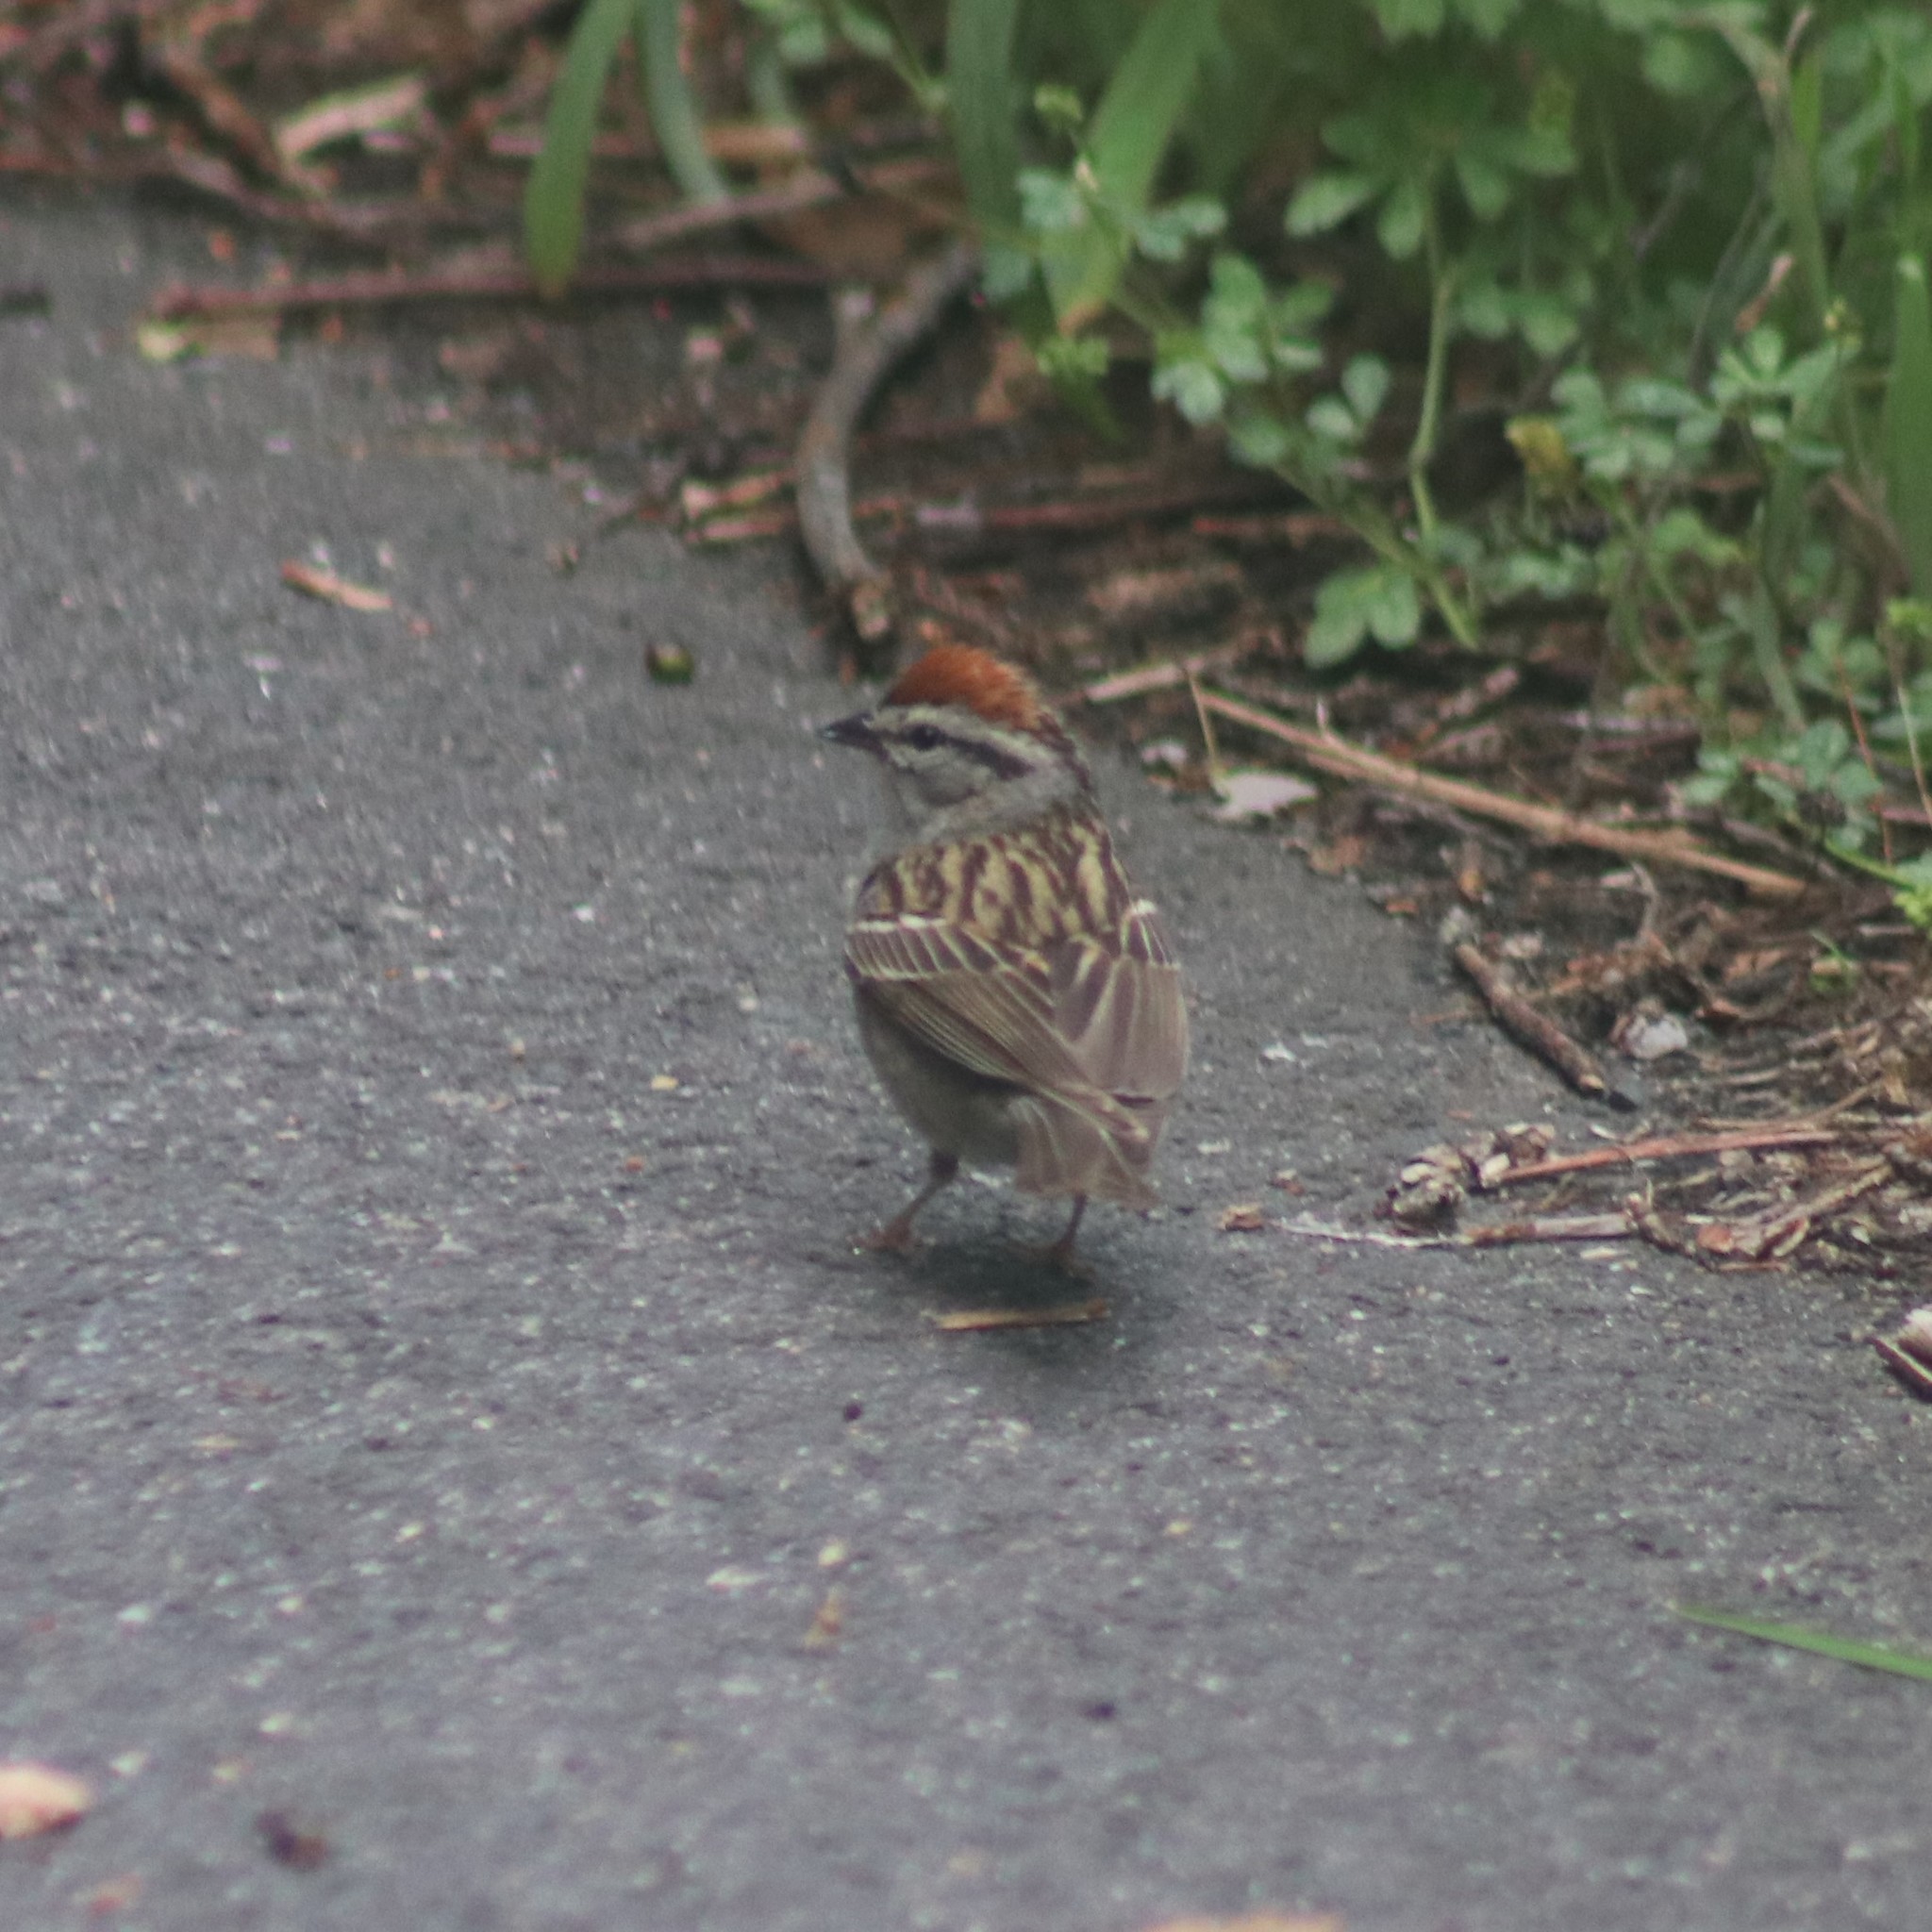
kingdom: Animalia
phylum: Chordata
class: Aves
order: Passeriformes
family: Passerellidae
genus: Spizella
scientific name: Spizella passerina
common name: Chipping sparrow
